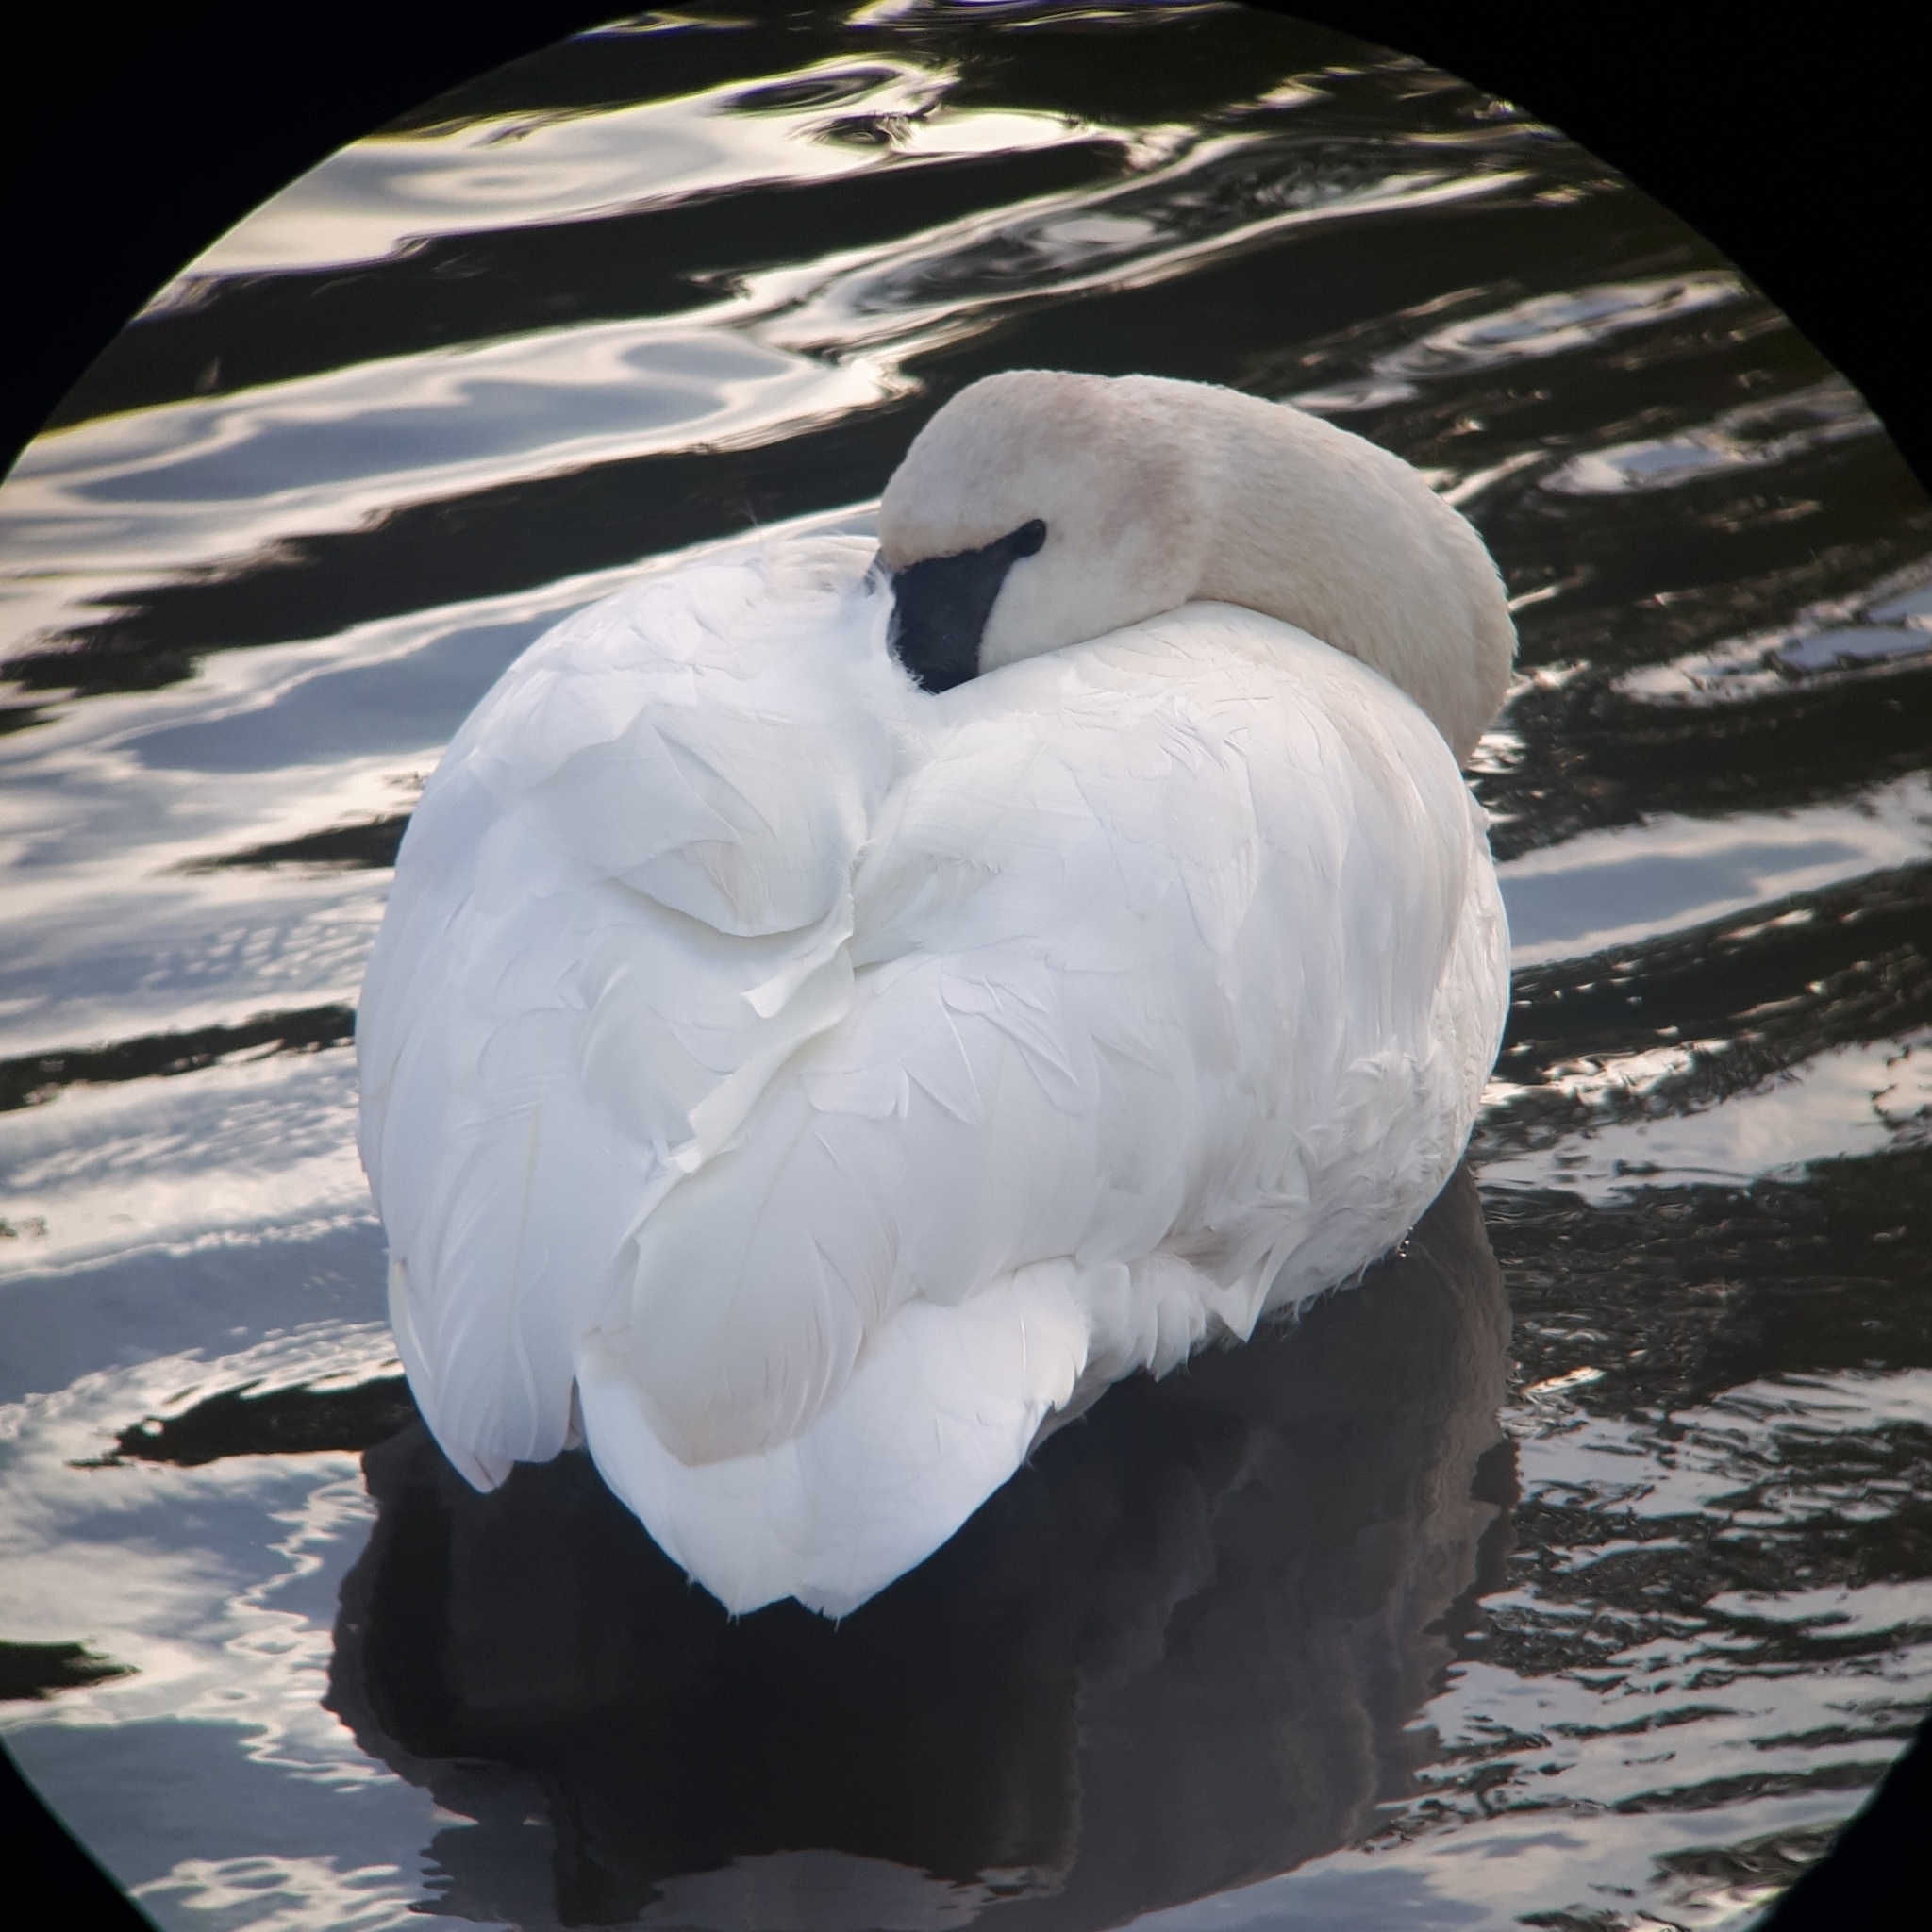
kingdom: Animalia
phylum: Chordata
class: Aves
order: Anseriformes
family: Anatidae
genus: Cygnus
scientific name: Cygnus buccinator
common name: Trumpeter swan
